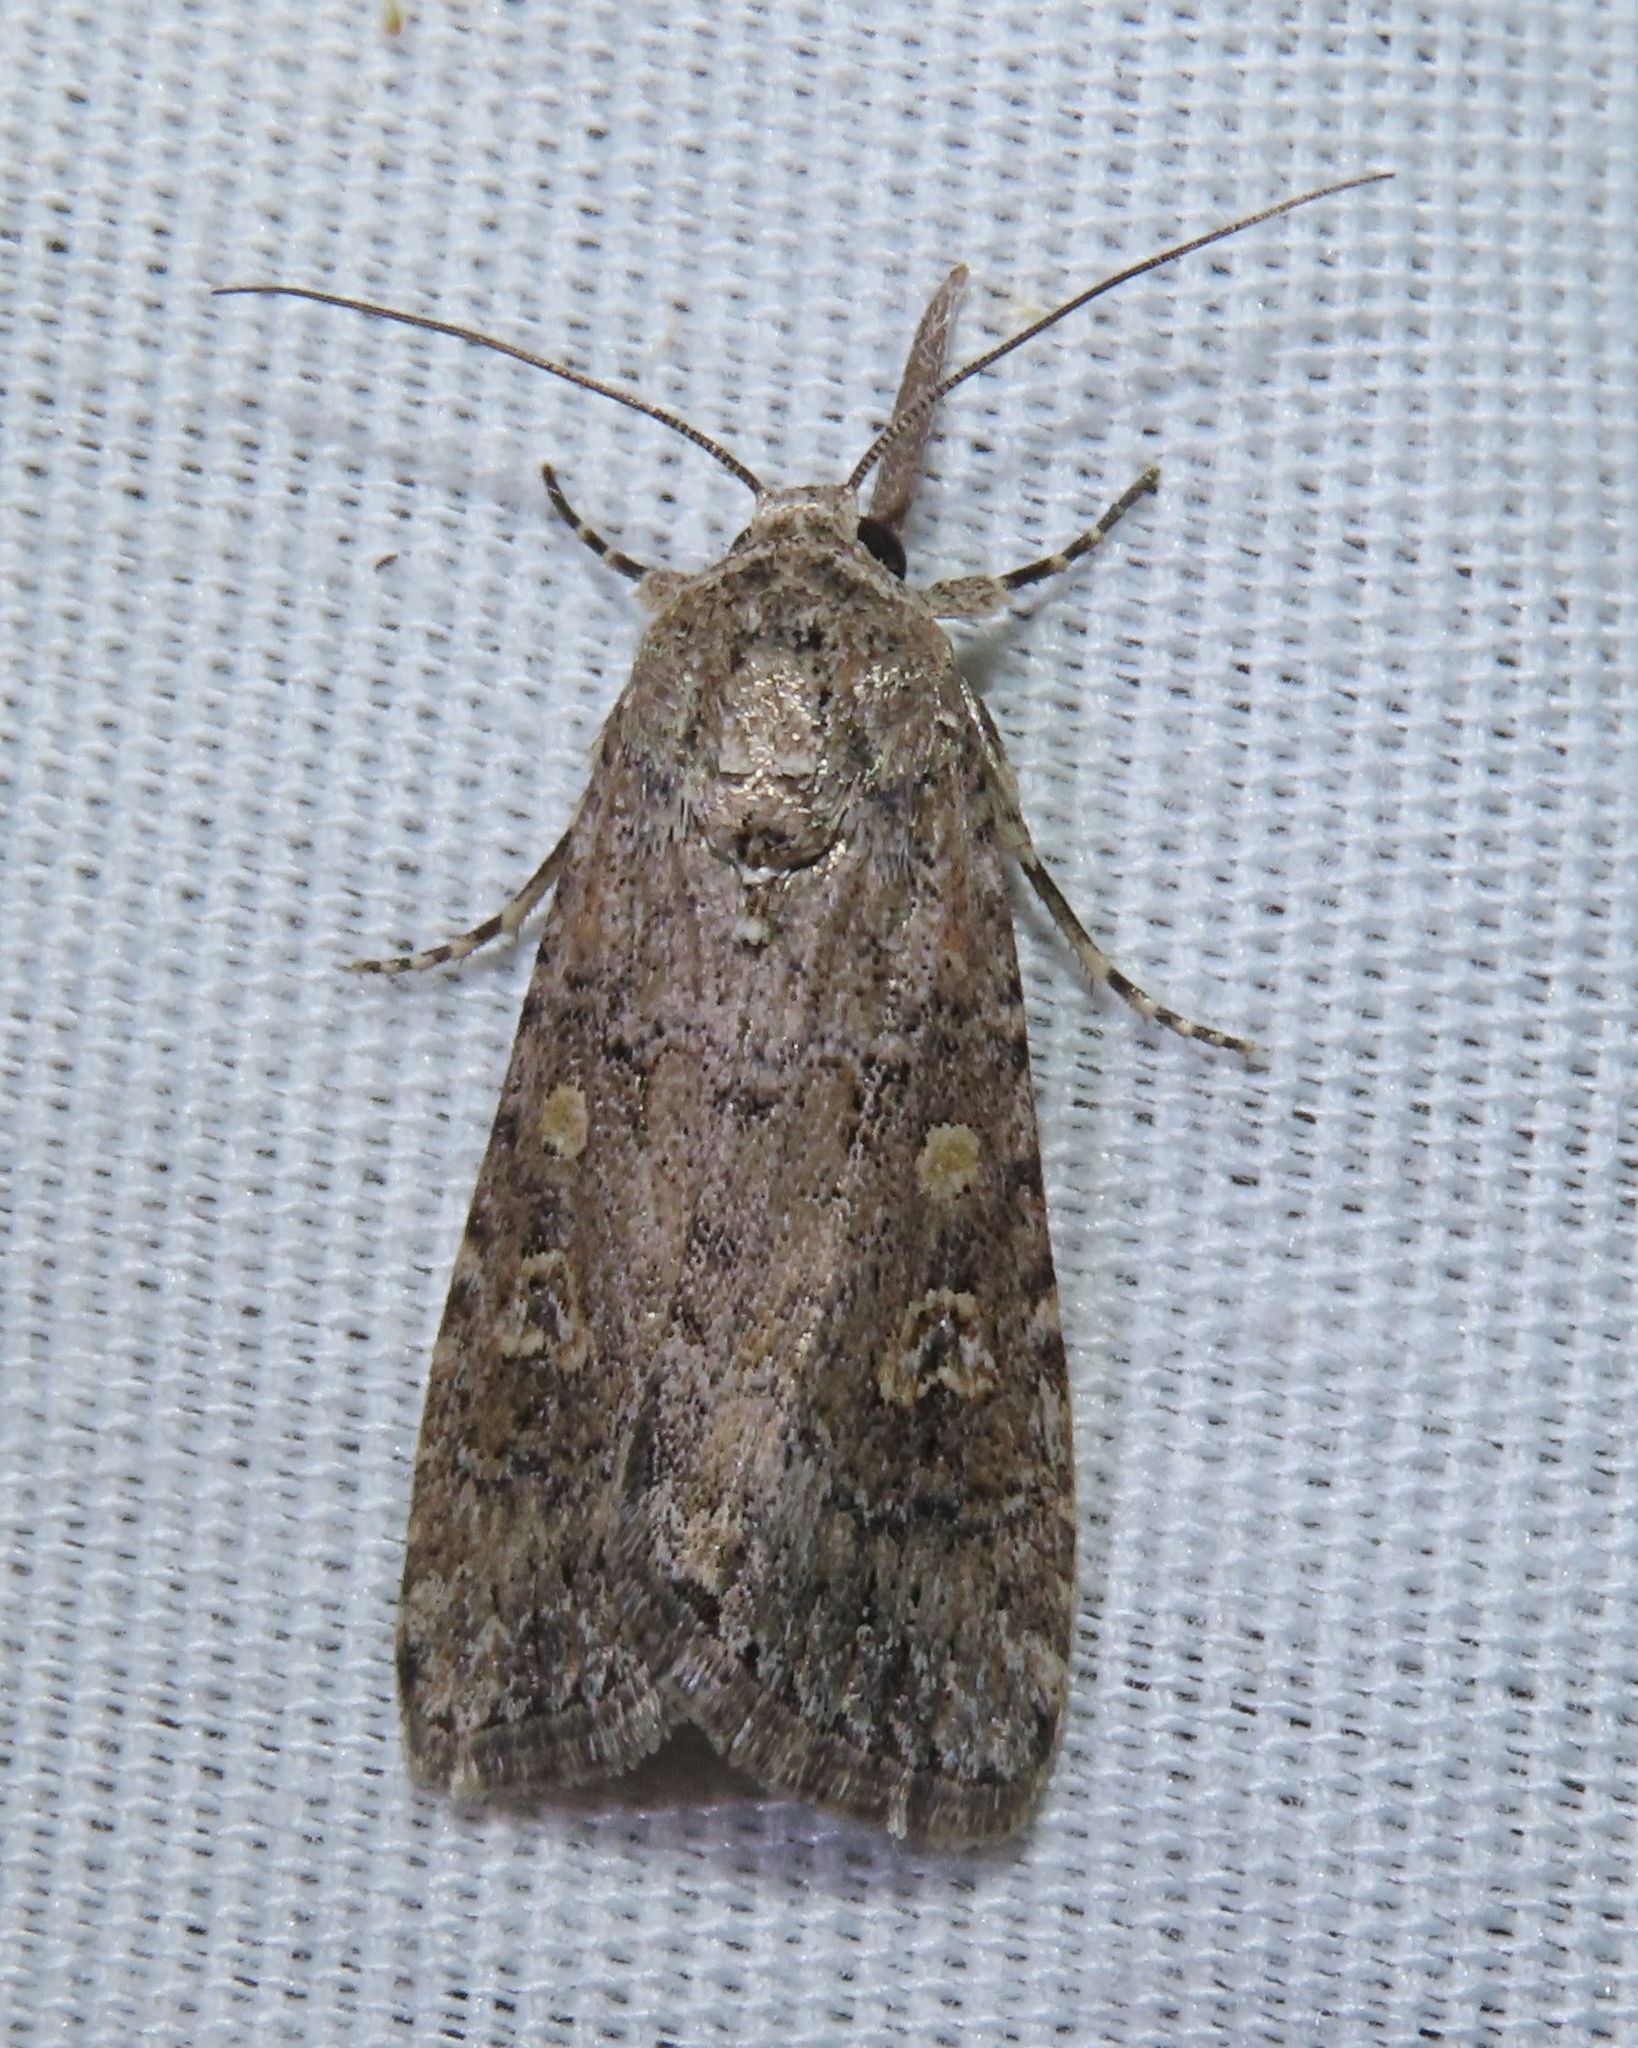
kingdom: Animalia
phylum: Arthropoda
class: Insecta
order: Lepidoptera
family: Noctuidae
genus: Spodoptera
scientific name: Spodoptera exigua
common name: Beet armyworm
